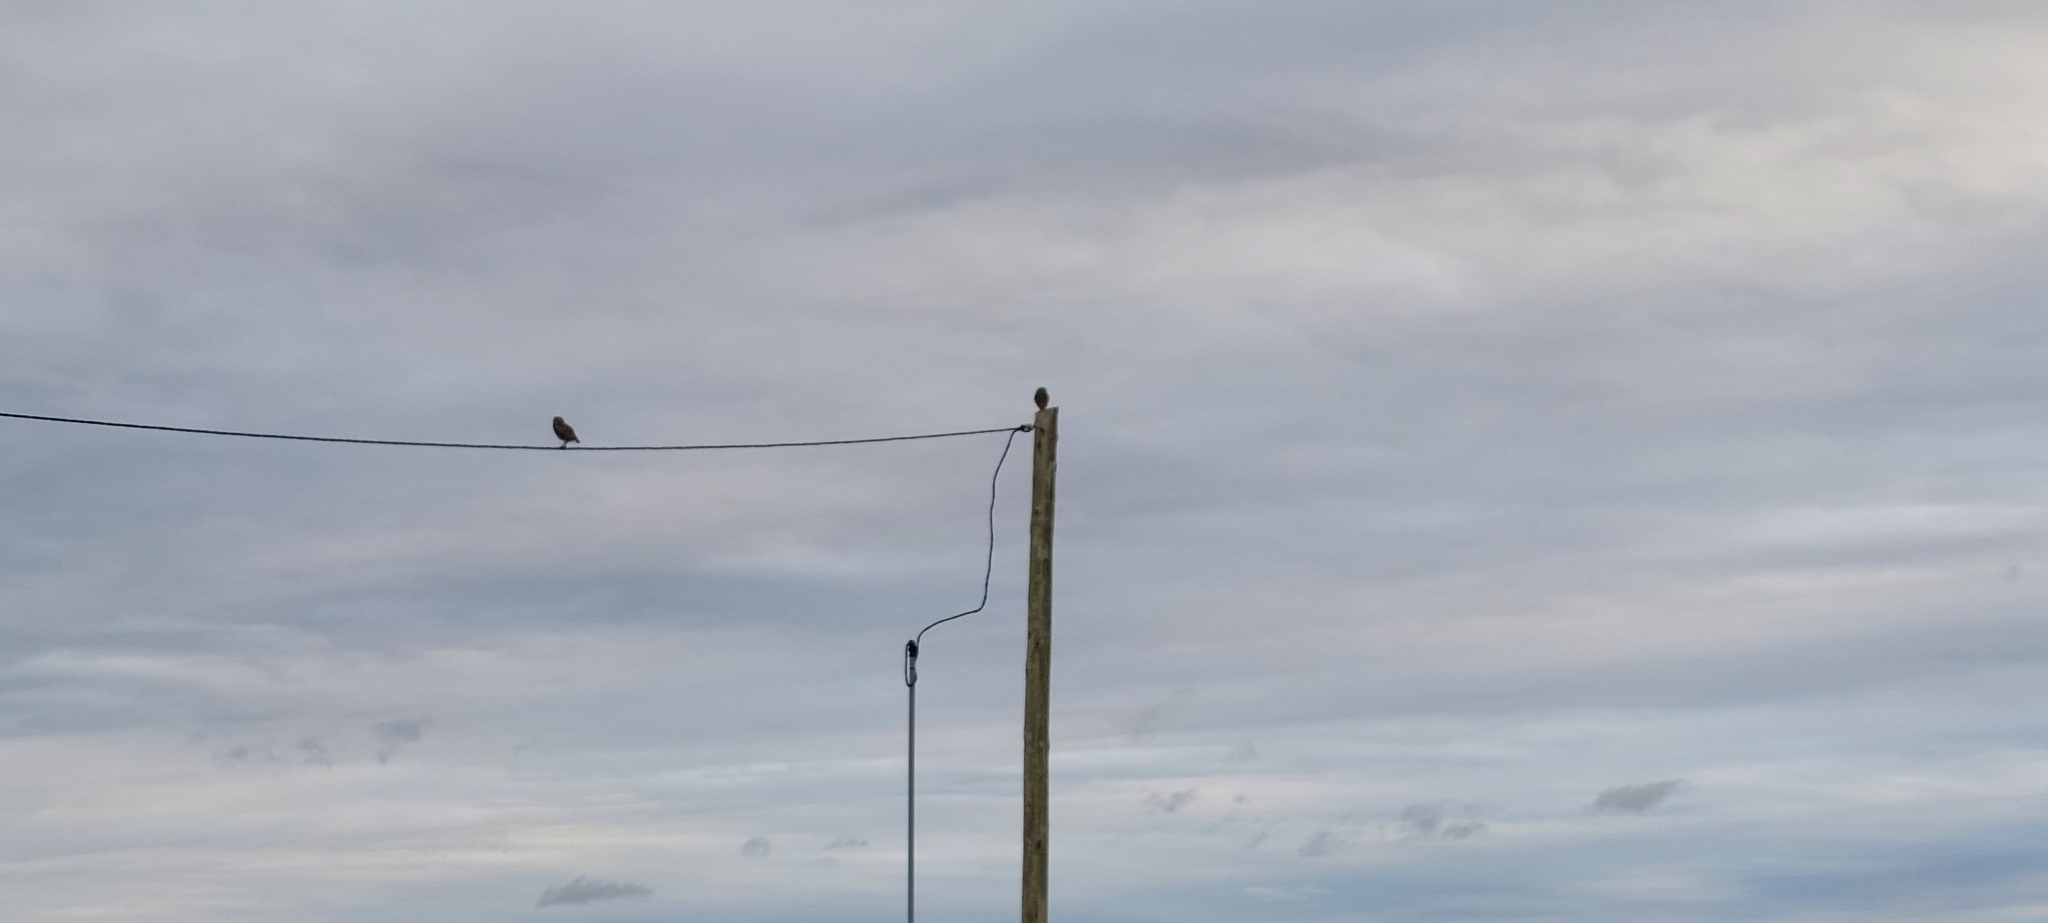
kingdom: Animalia
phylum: Chordata
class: Aves
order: Strigiformes
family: Strigidae
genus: Athene
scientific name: Athene cunicularia
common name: Burrowing owl
